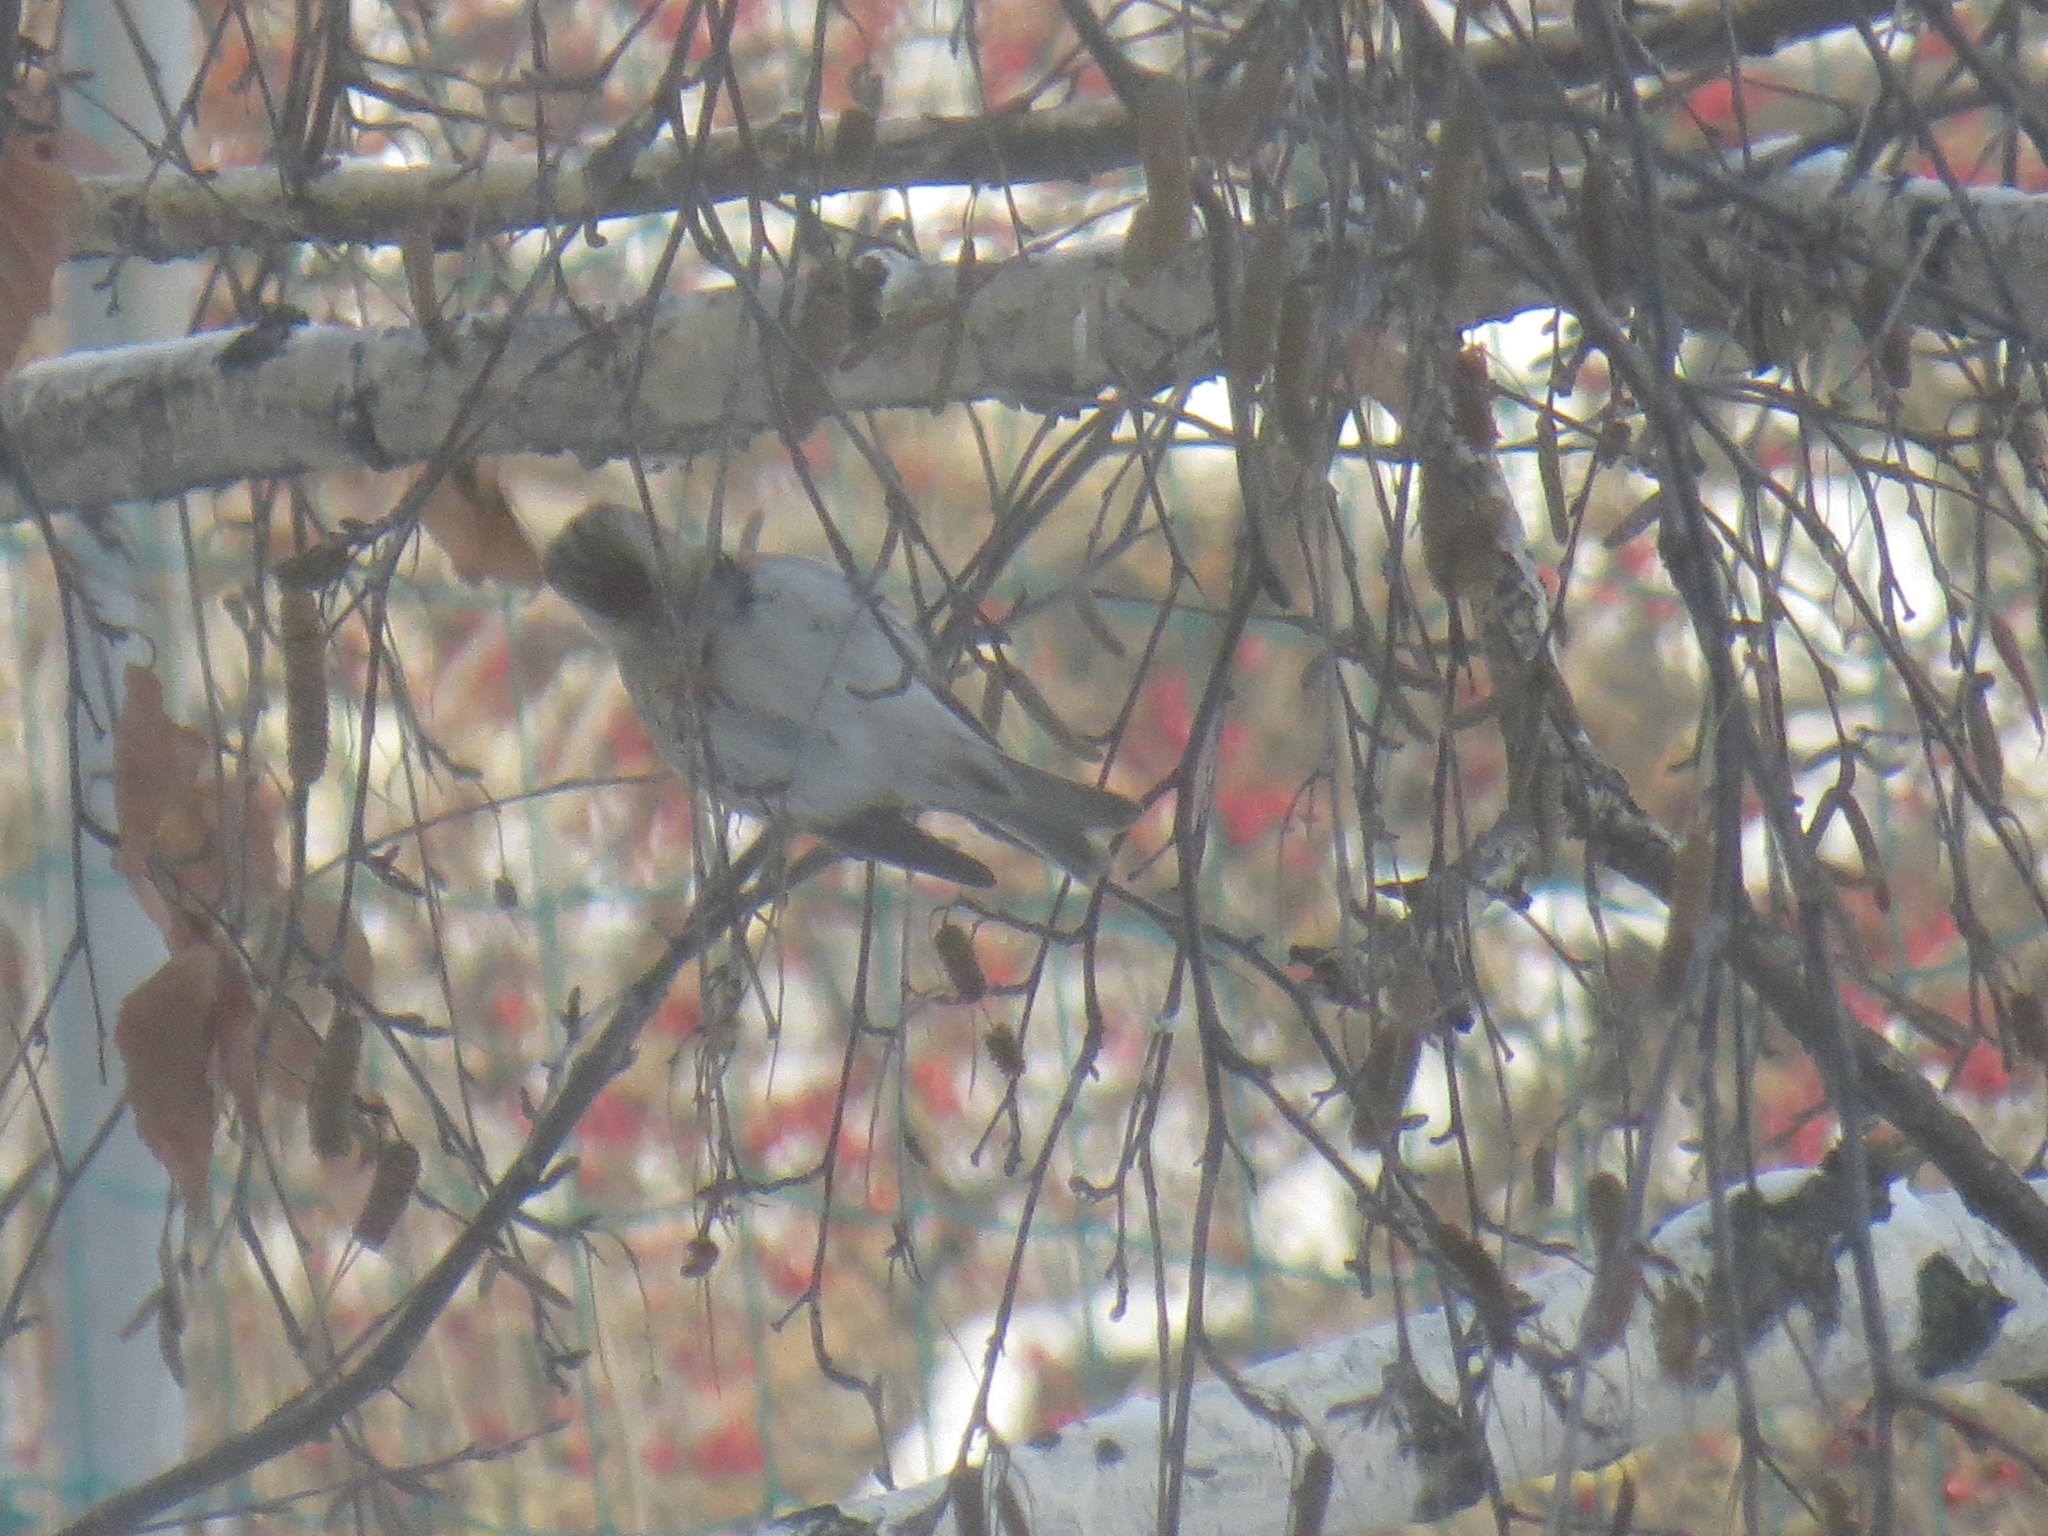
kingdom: Animalia
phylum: Chordata
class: Aves
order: Passeriformes
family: Fringillidae
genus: Acanthis
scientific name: Acanthis flammea
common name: Common redpoll
